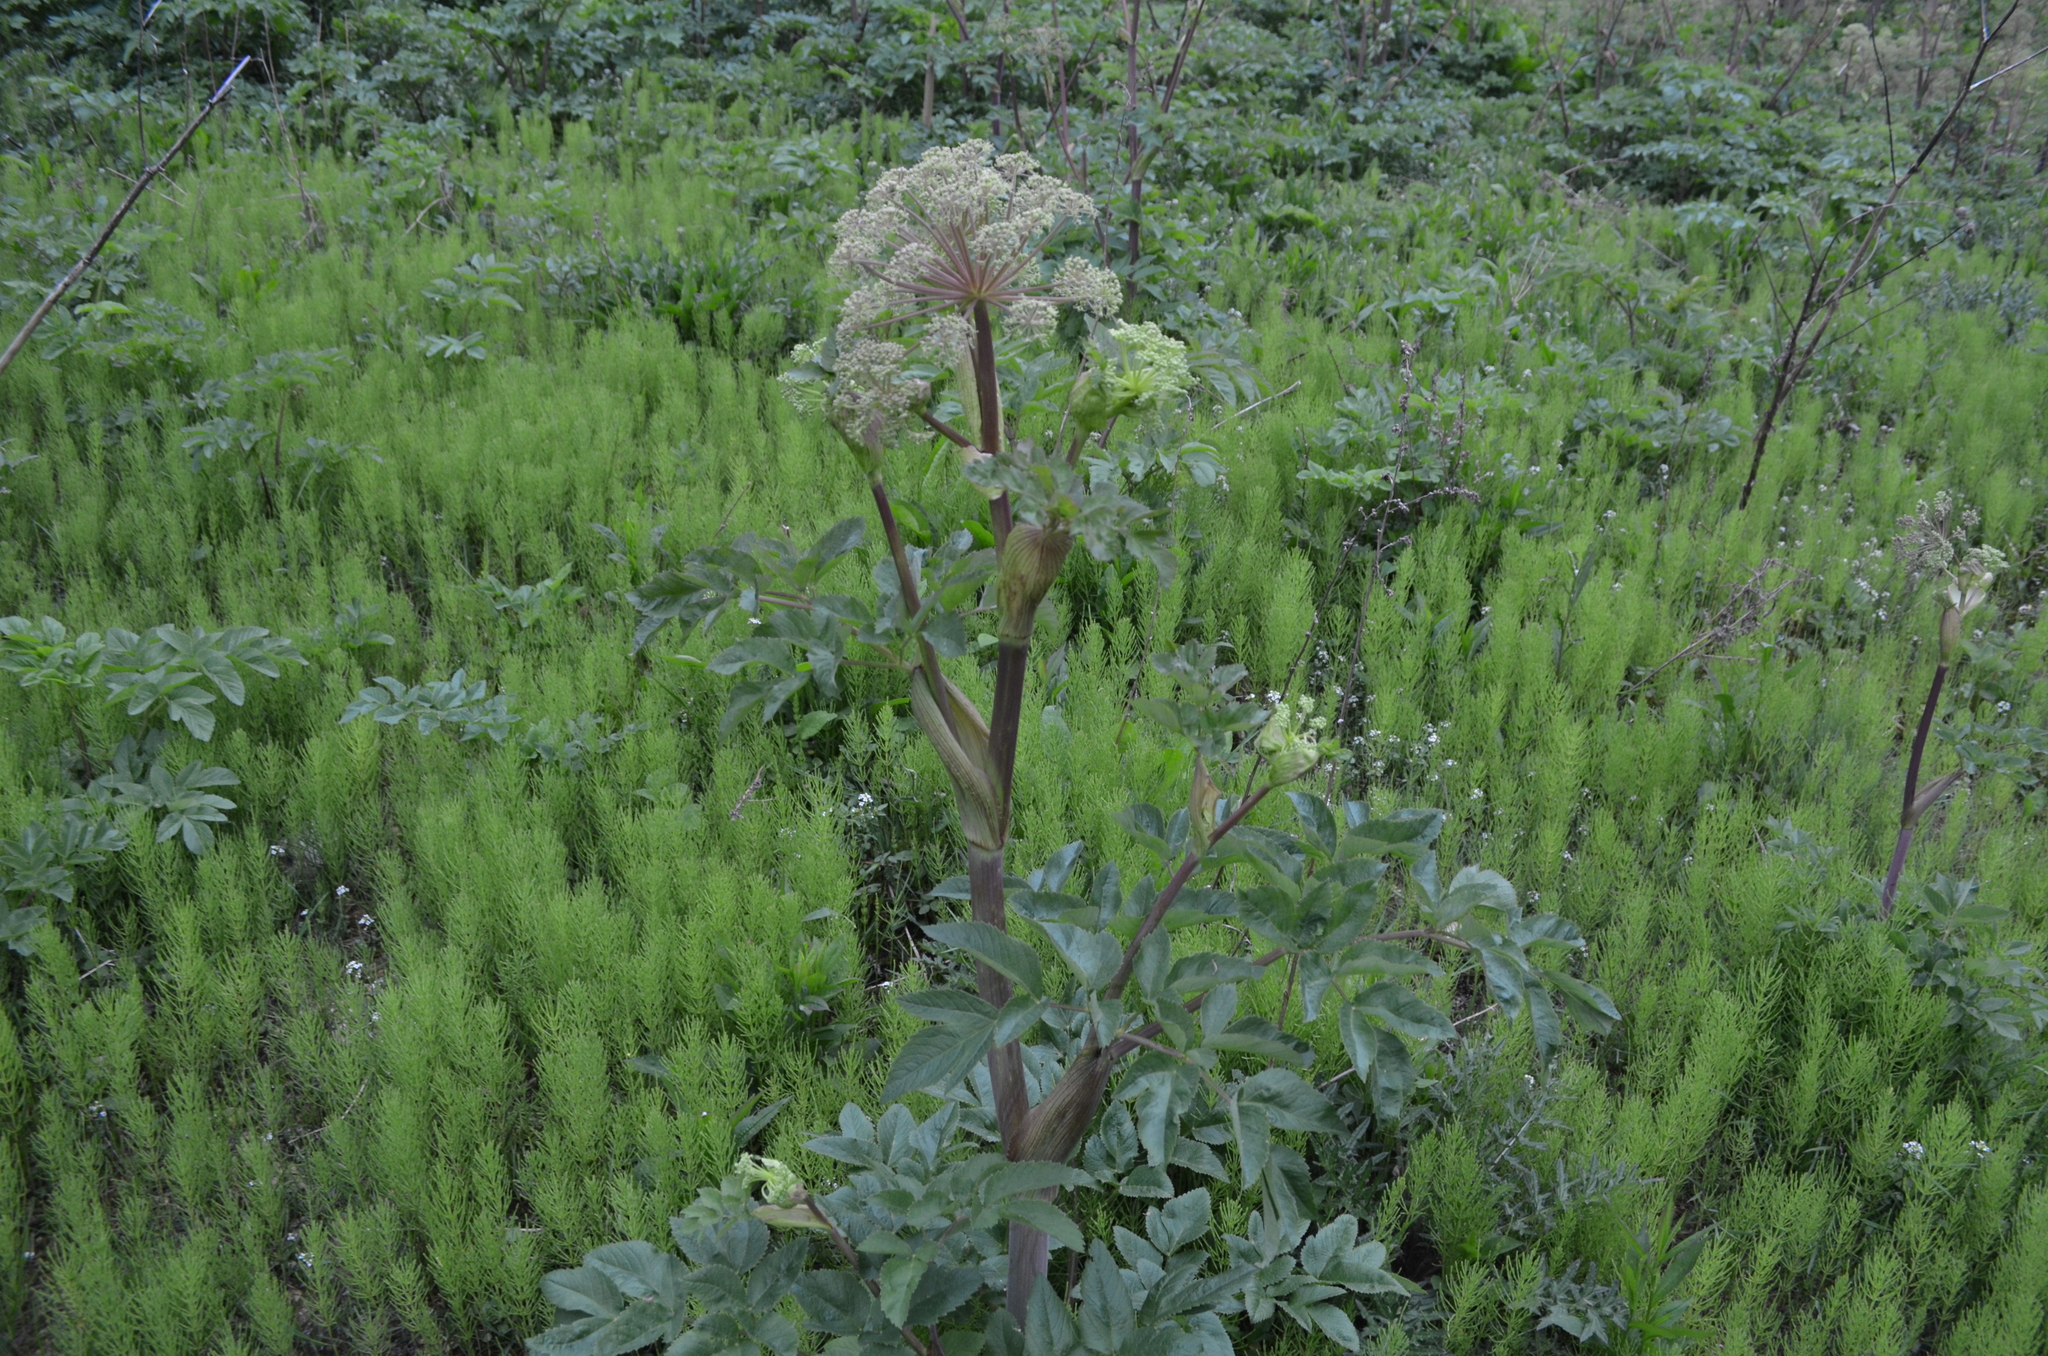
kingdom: Plantae
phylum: Tracheophyta
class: Magnoliopsida
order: Apiales
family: Apiaceae
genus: Angelica
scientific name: Angelica atropurpurea
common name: Great angelica
